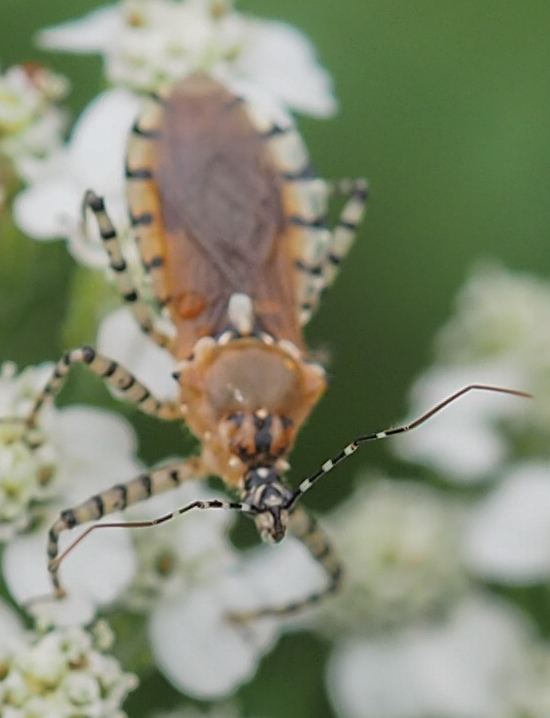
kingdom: Animalia
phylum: Arthropoda
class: Insecta
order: Hemiptera
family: Reduviidae
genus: Pselliopus
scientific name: Pselliopus cinctus
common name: Ringed assassin bug
